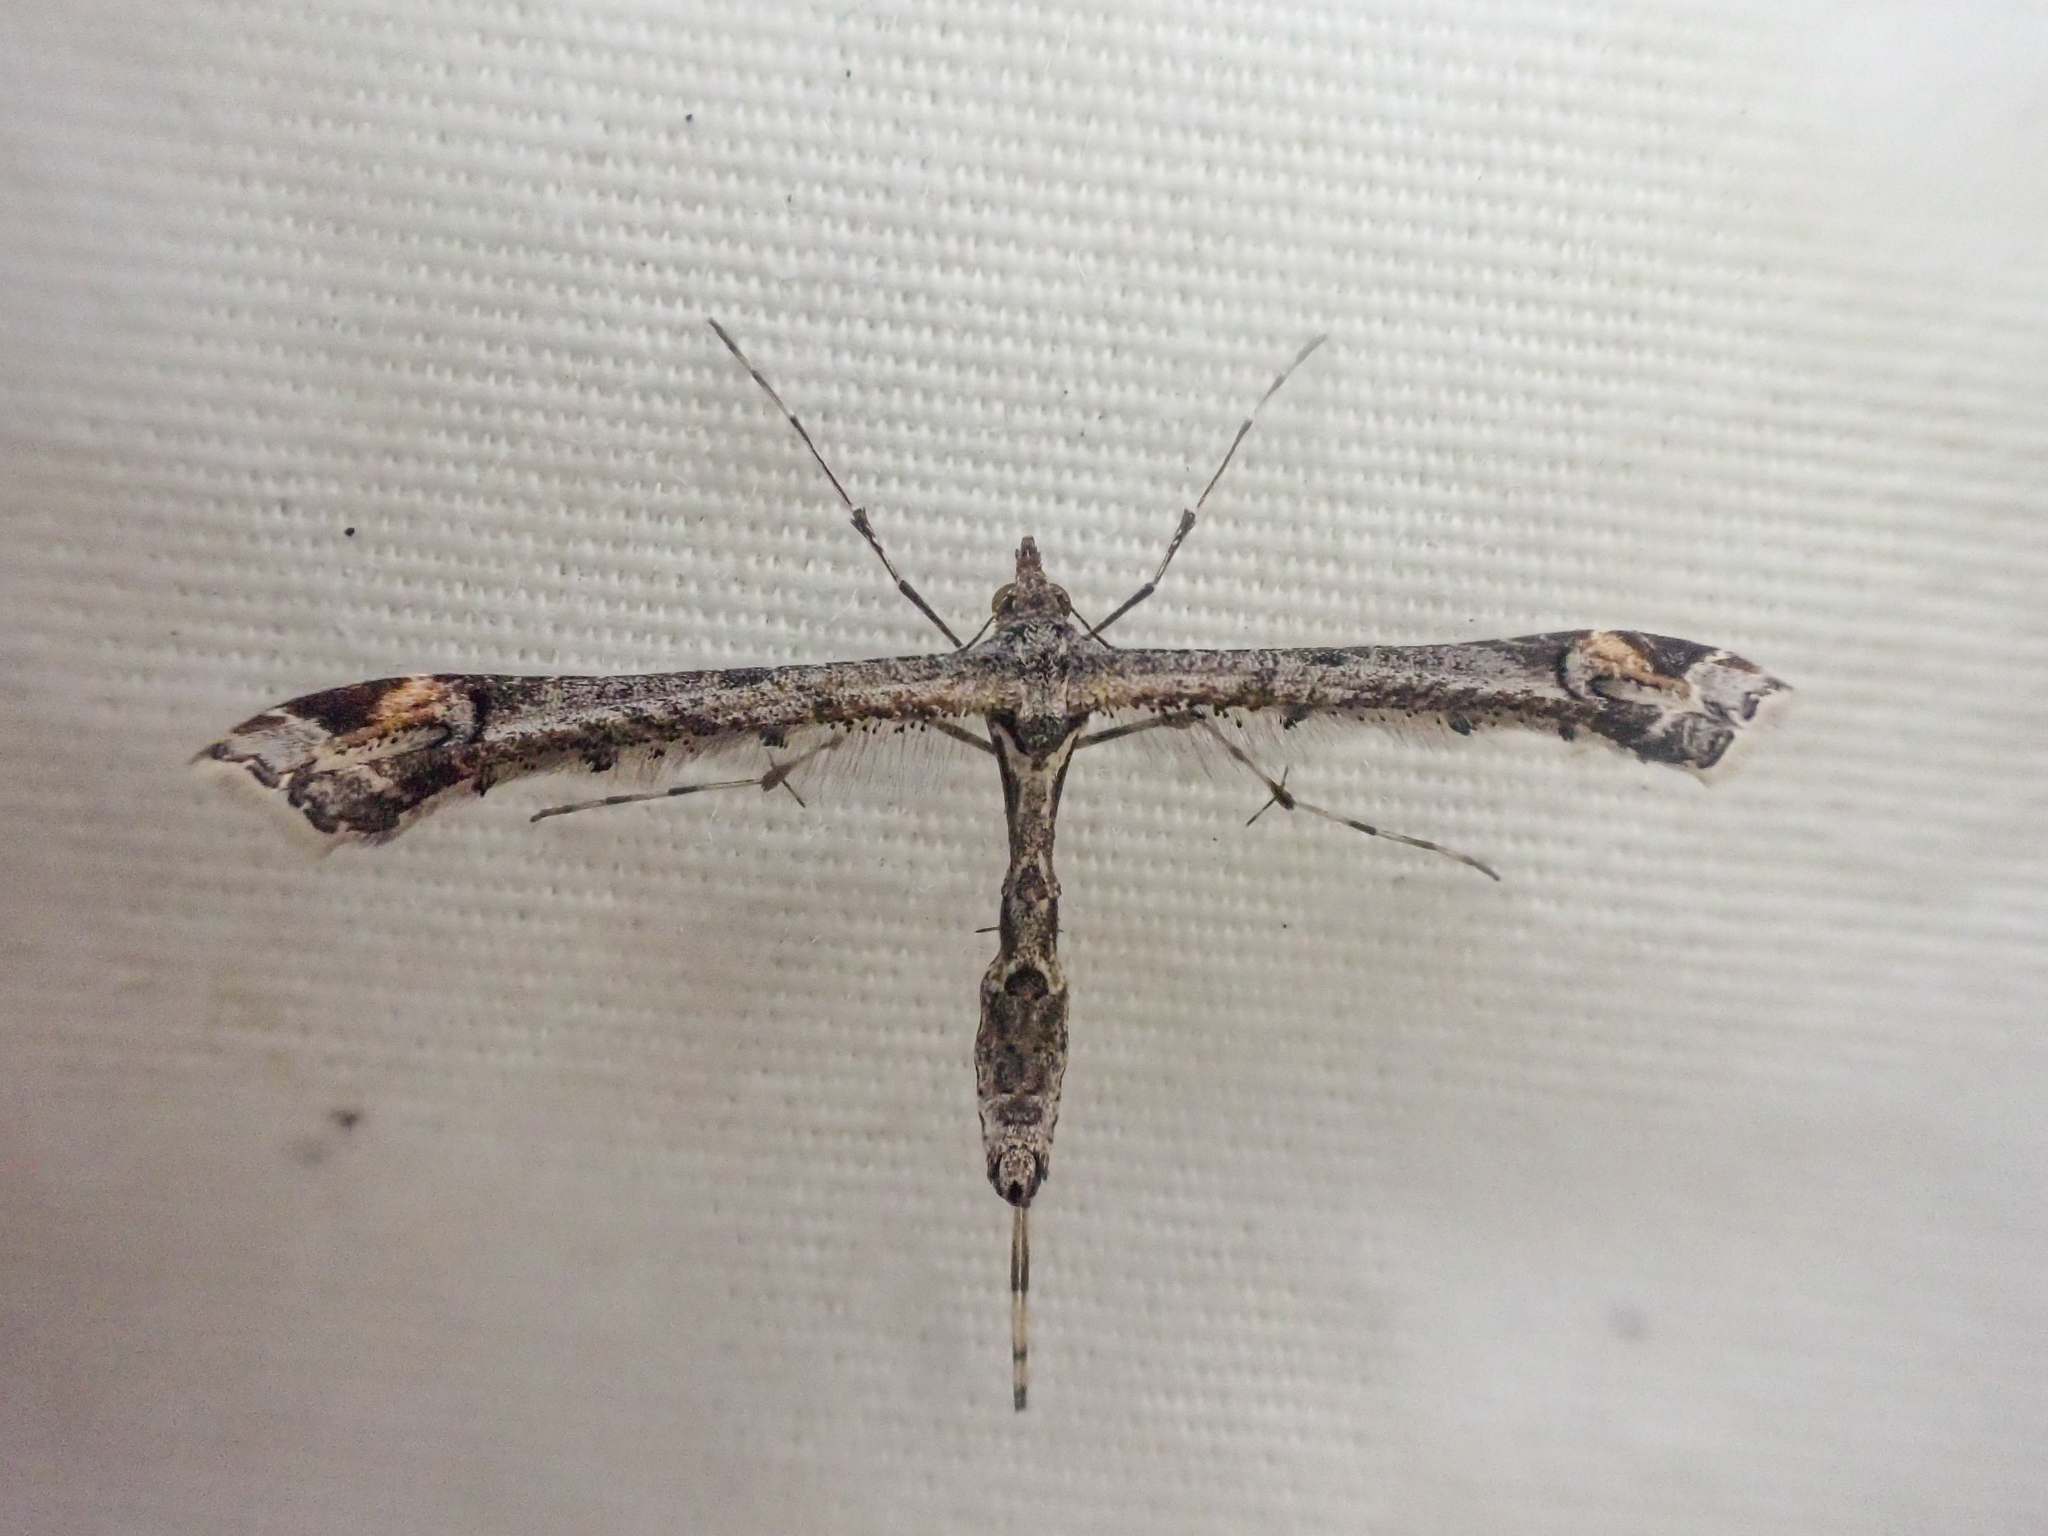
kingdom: Animalia
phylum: Arthropoda
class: Insecta
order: Lepidoptera
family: Pterophoridae
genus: Anstenoptilia
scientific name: Anstenoptilia marmarodactyla
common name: Moth
